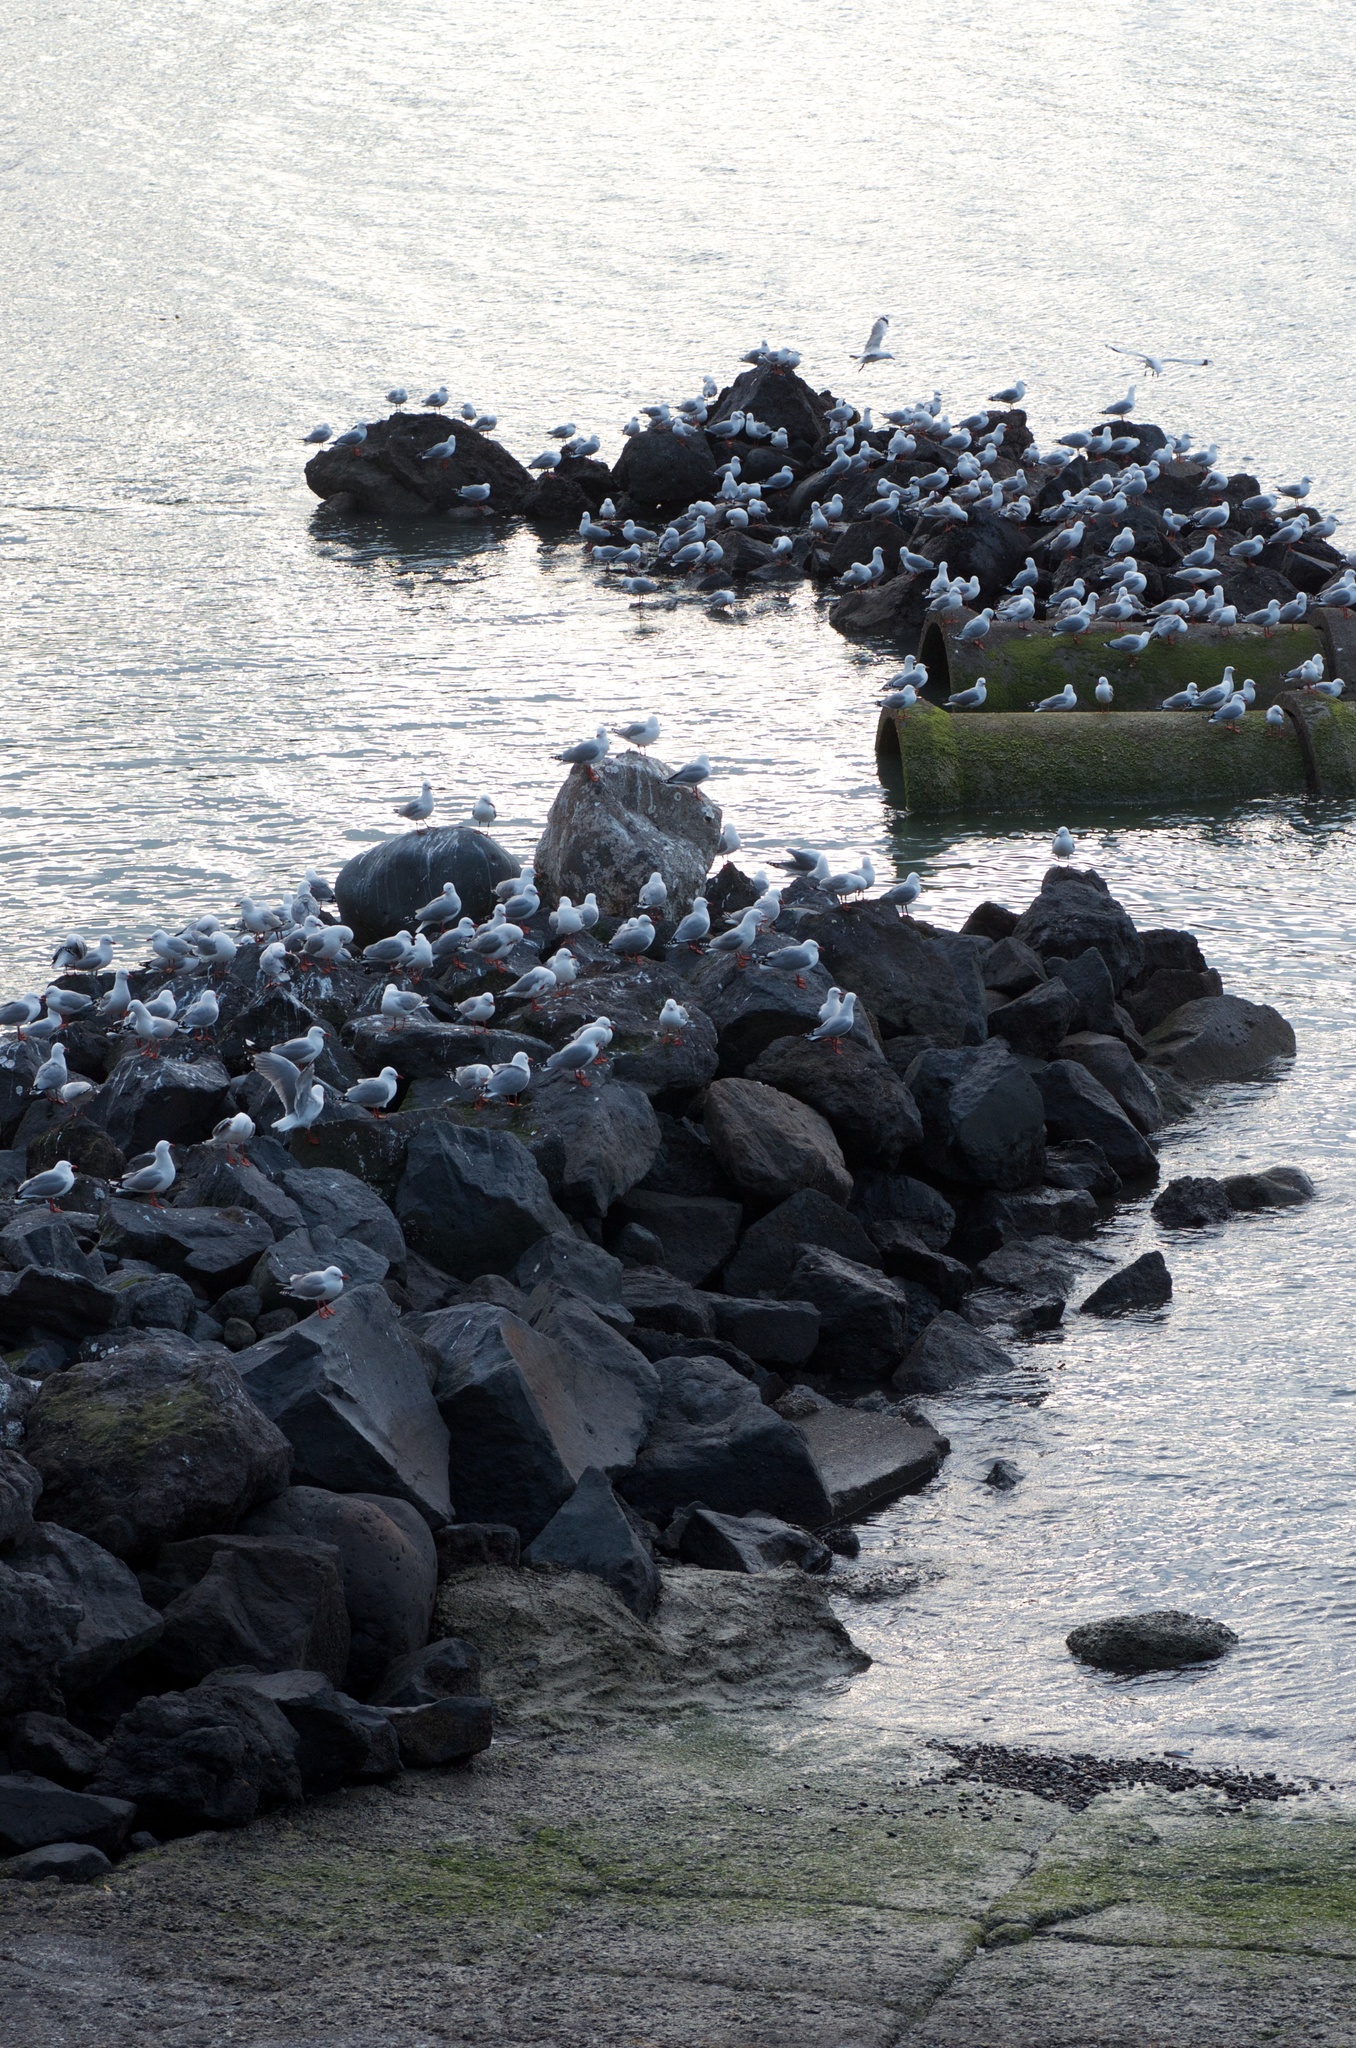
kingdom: Animalia
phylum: Chordata
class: Aves
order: Charadriiformes
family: Laridae
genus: Chroicocephalus
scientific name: Chroicocephalus novaehollandiae
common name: Silver gull
